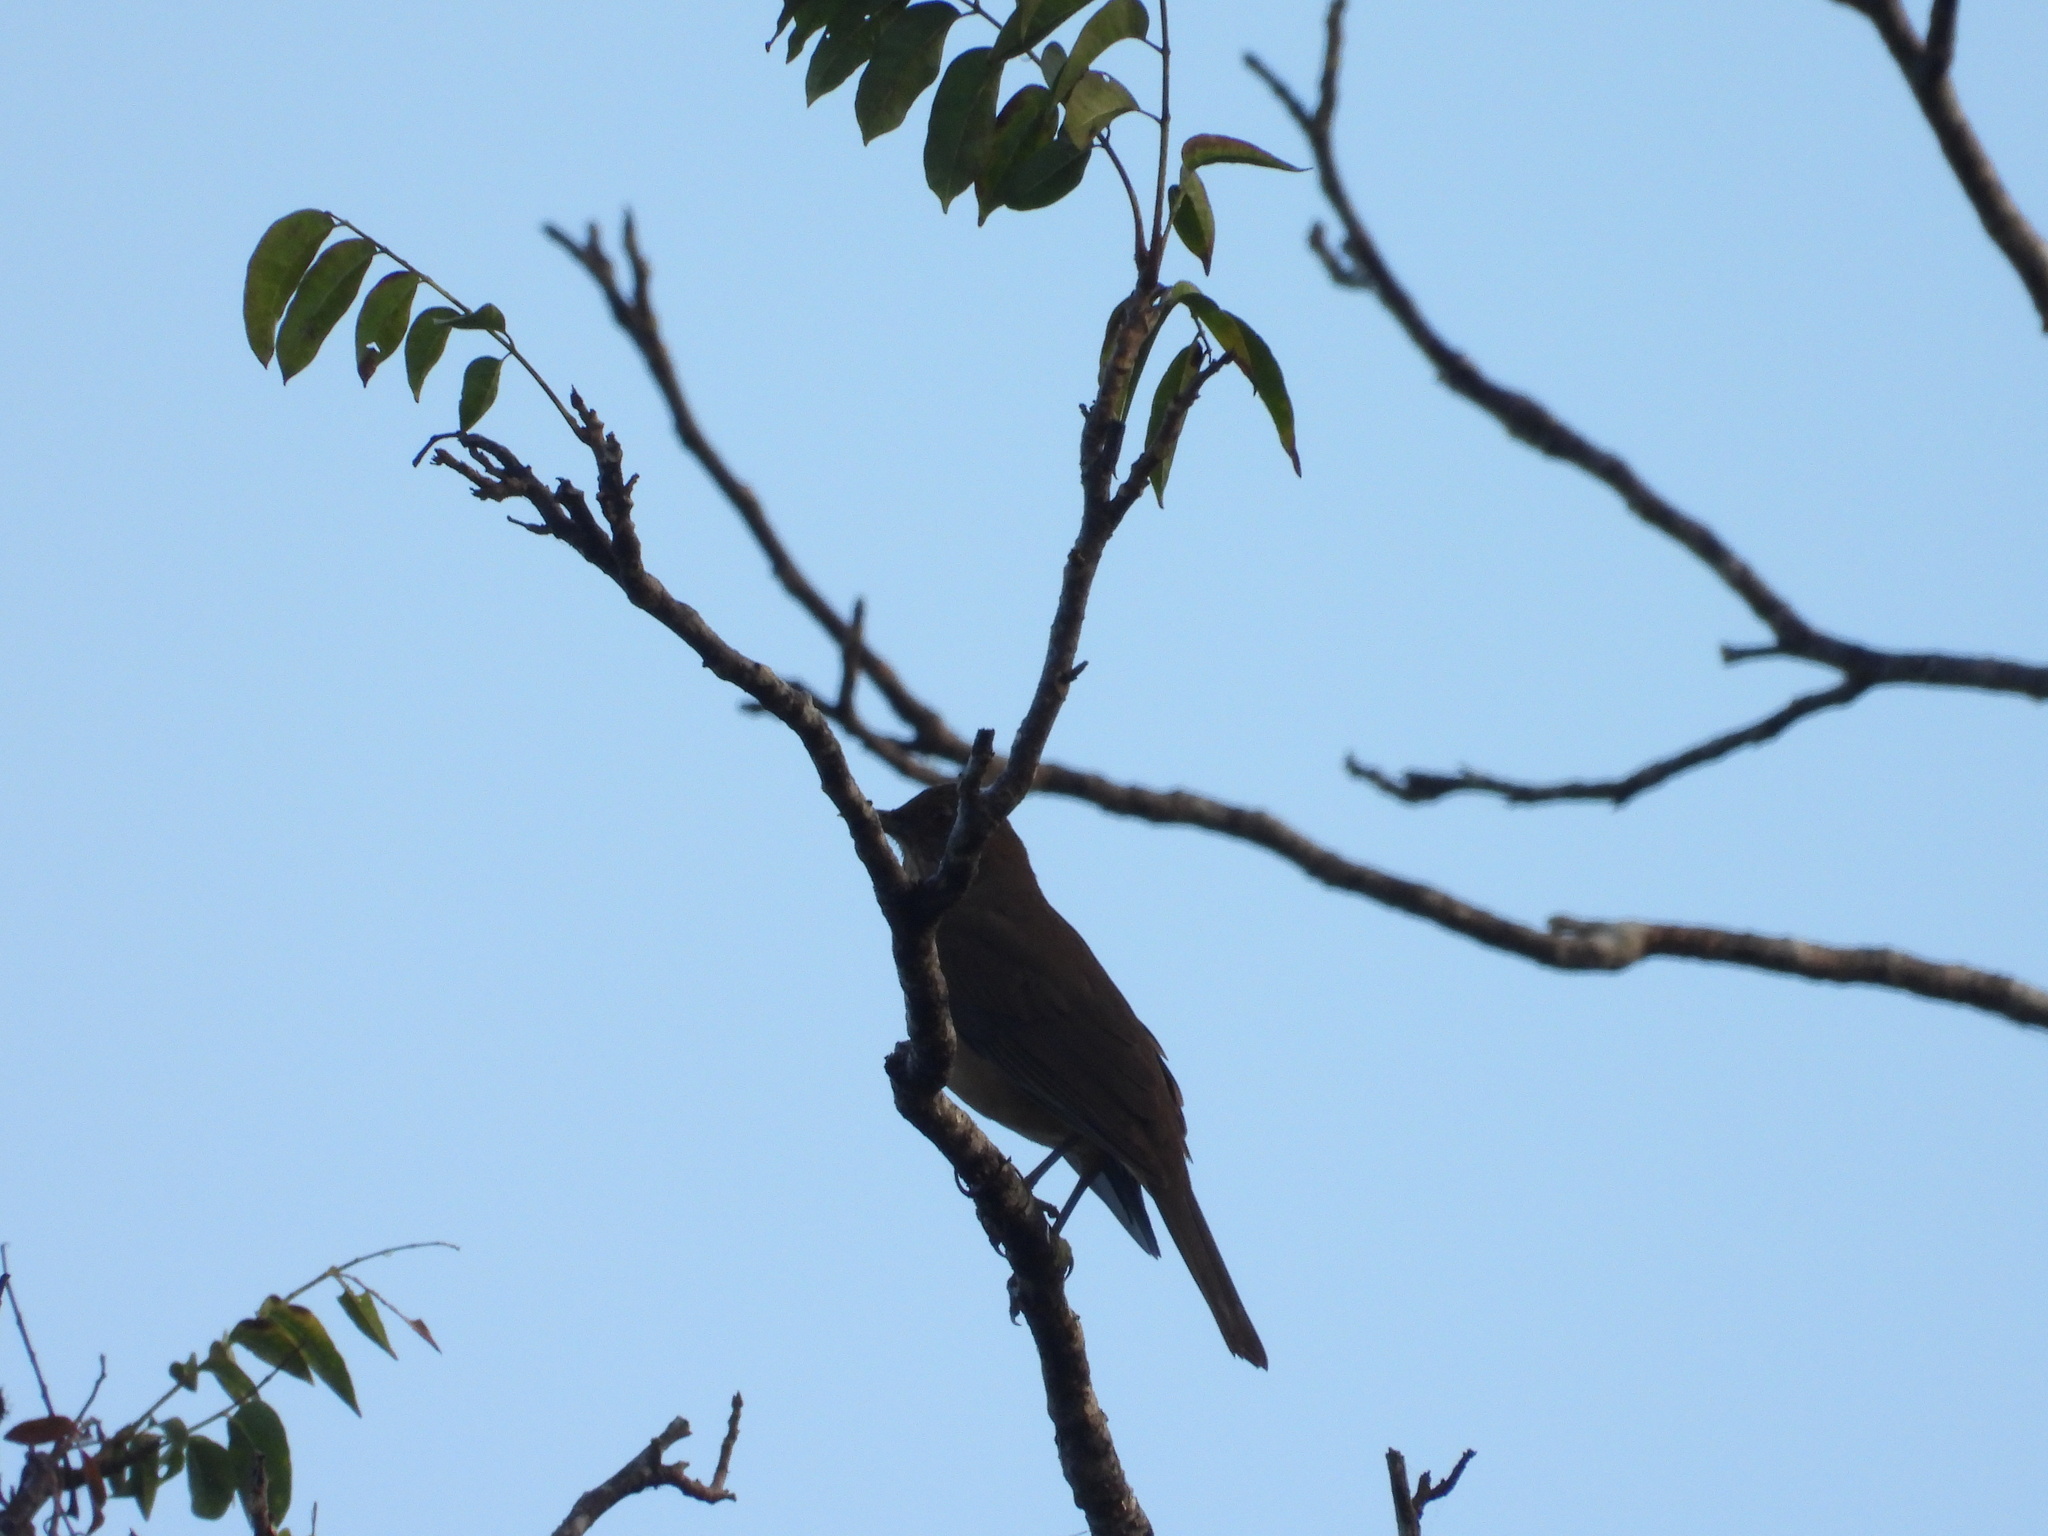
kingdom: Animalia
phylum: Chordata
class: Aves
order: Passeriformes
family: Turdidae
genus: Turdus
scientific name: Turdus grayi
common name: Clay-colored thrush
